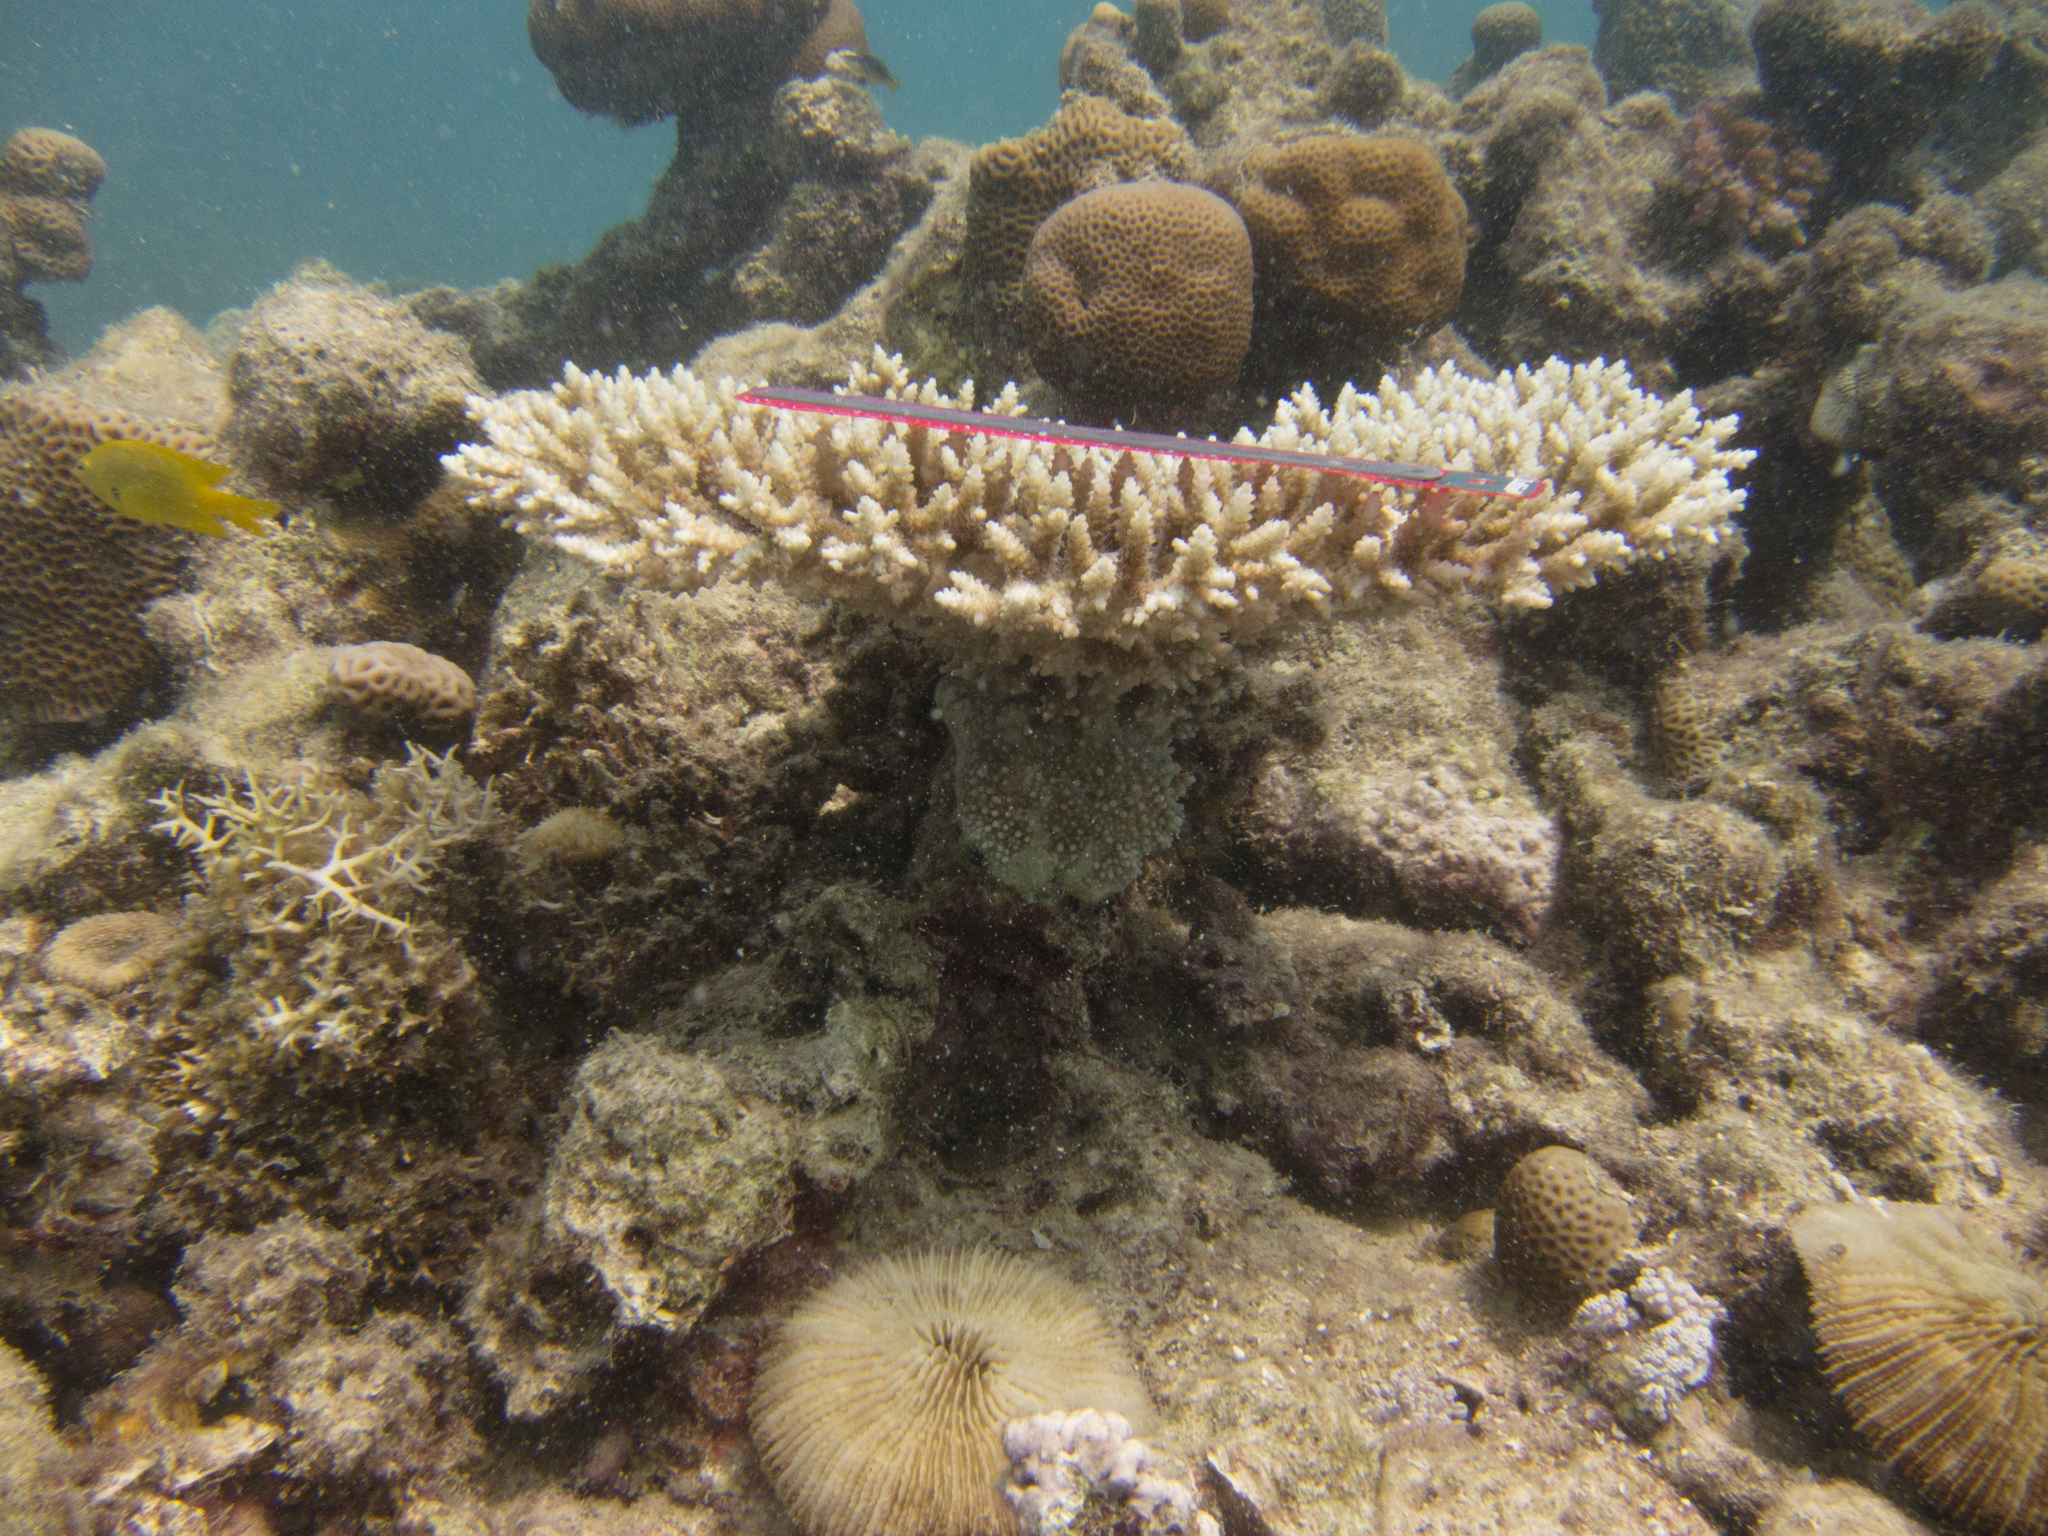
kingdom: Animalia
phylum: Chordata
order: Perciformes
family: Pomacentridae
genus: Pomacentrus
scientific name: Pomacentrus sulfureus
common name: Sulfur damsel
